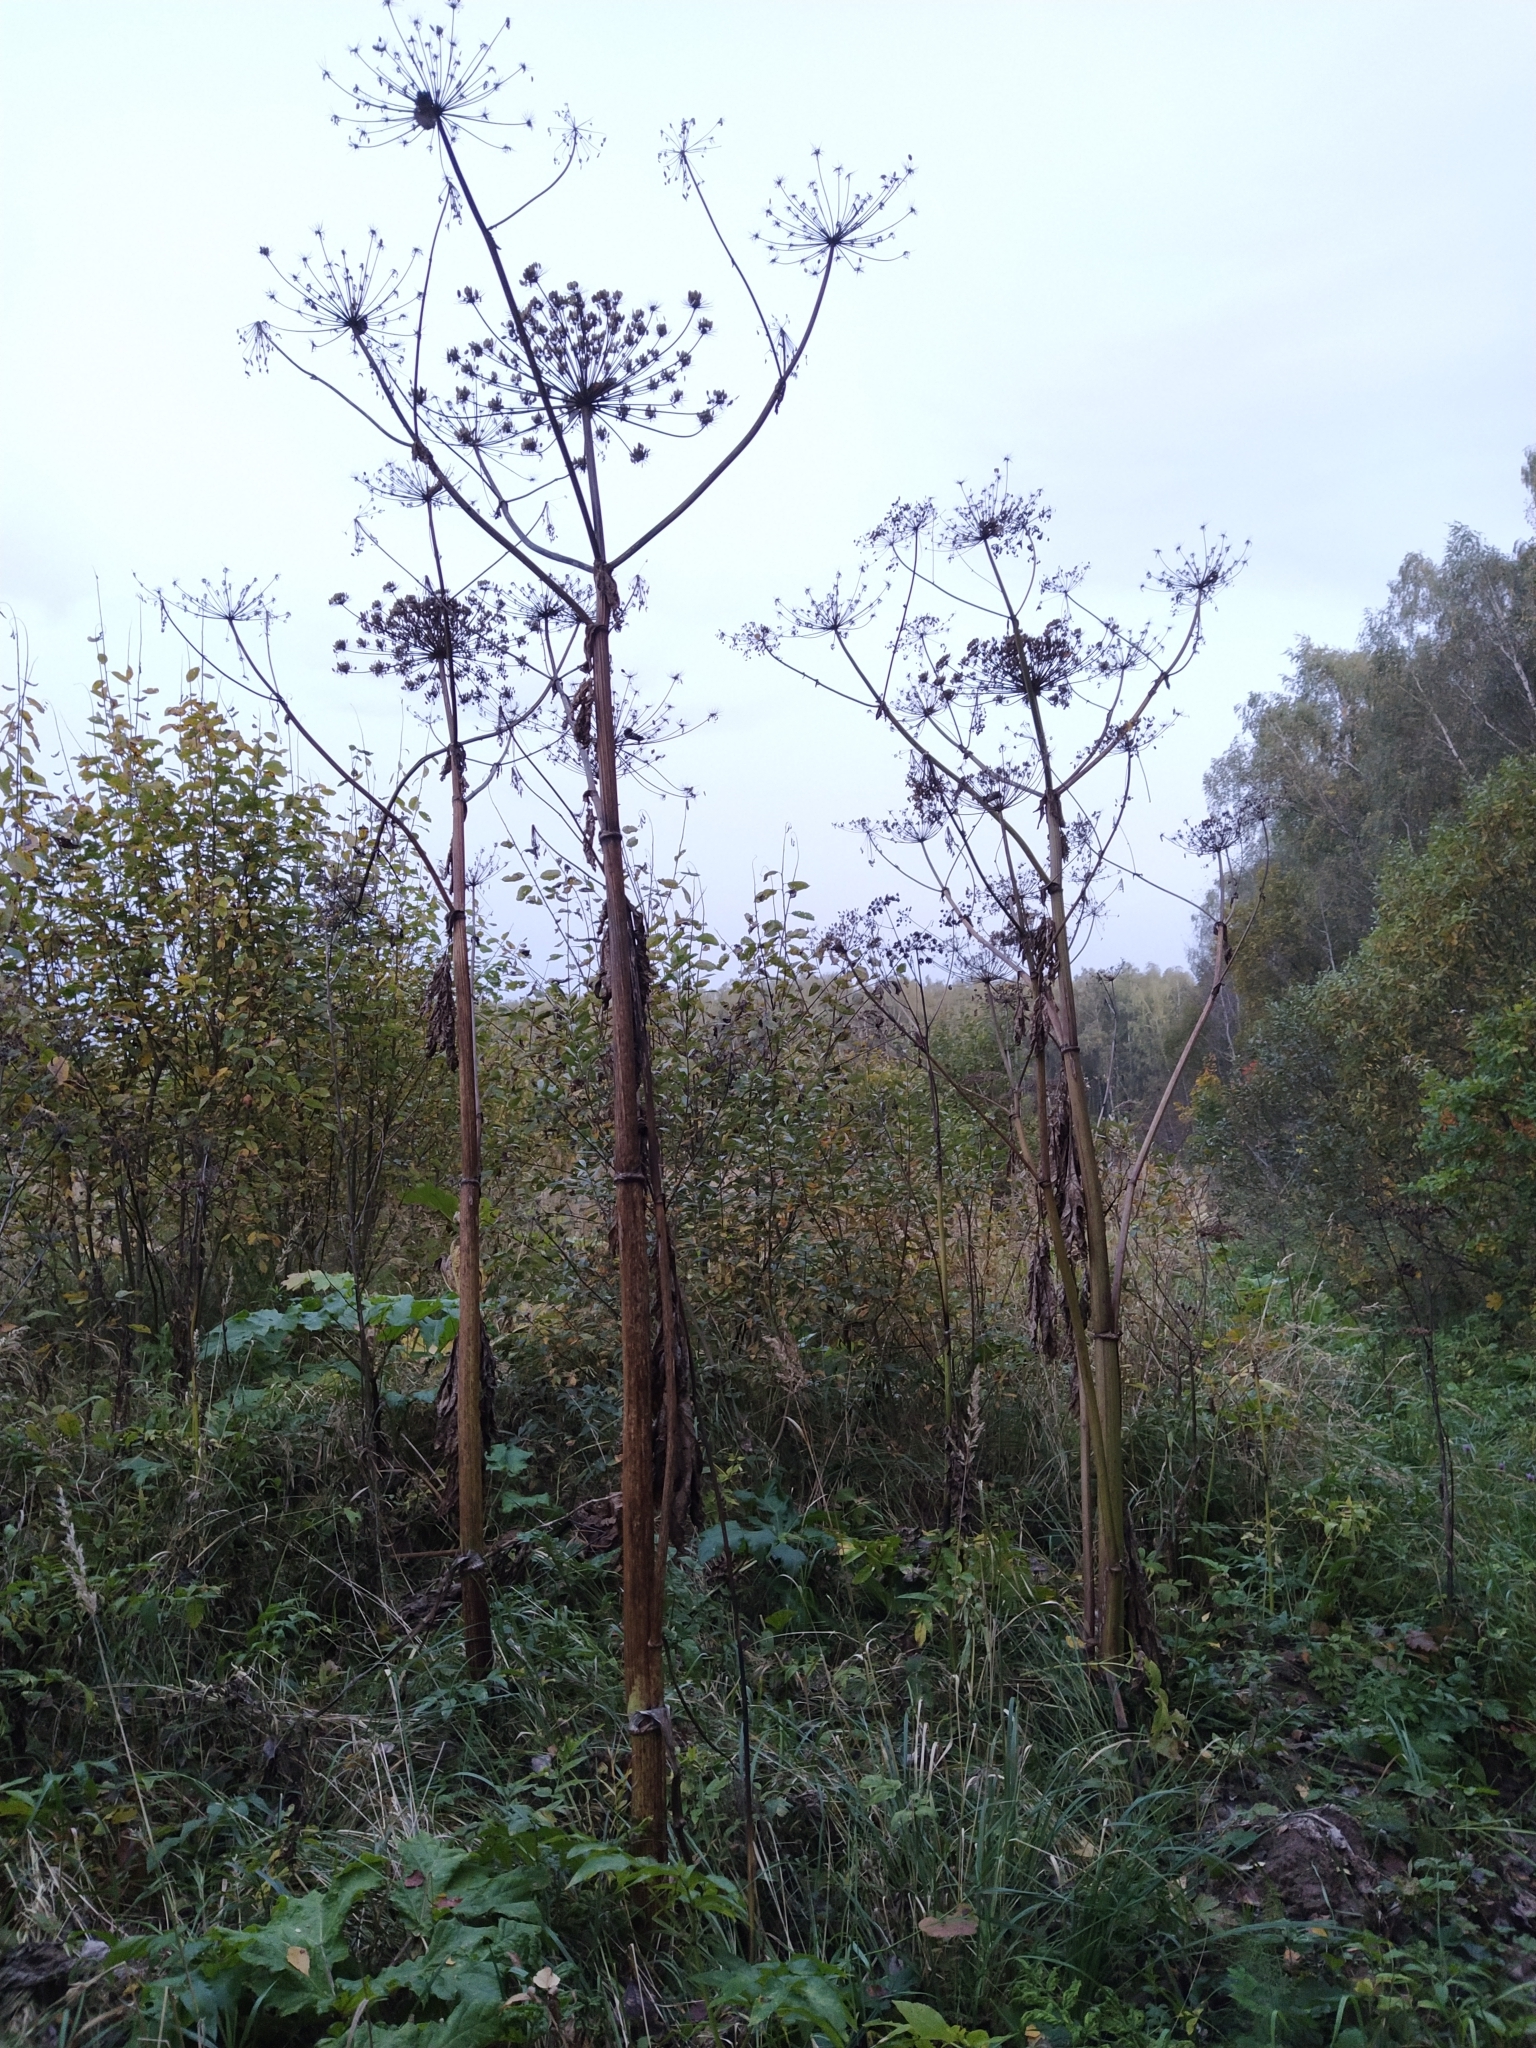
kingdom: Plantae
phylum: Tracheophyta
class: Magnoliopsida
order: Apiales
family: Apiaceae
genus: Heracleum
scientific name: Heracleum sosnowskyi
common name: Sosnowsky's hogweed
